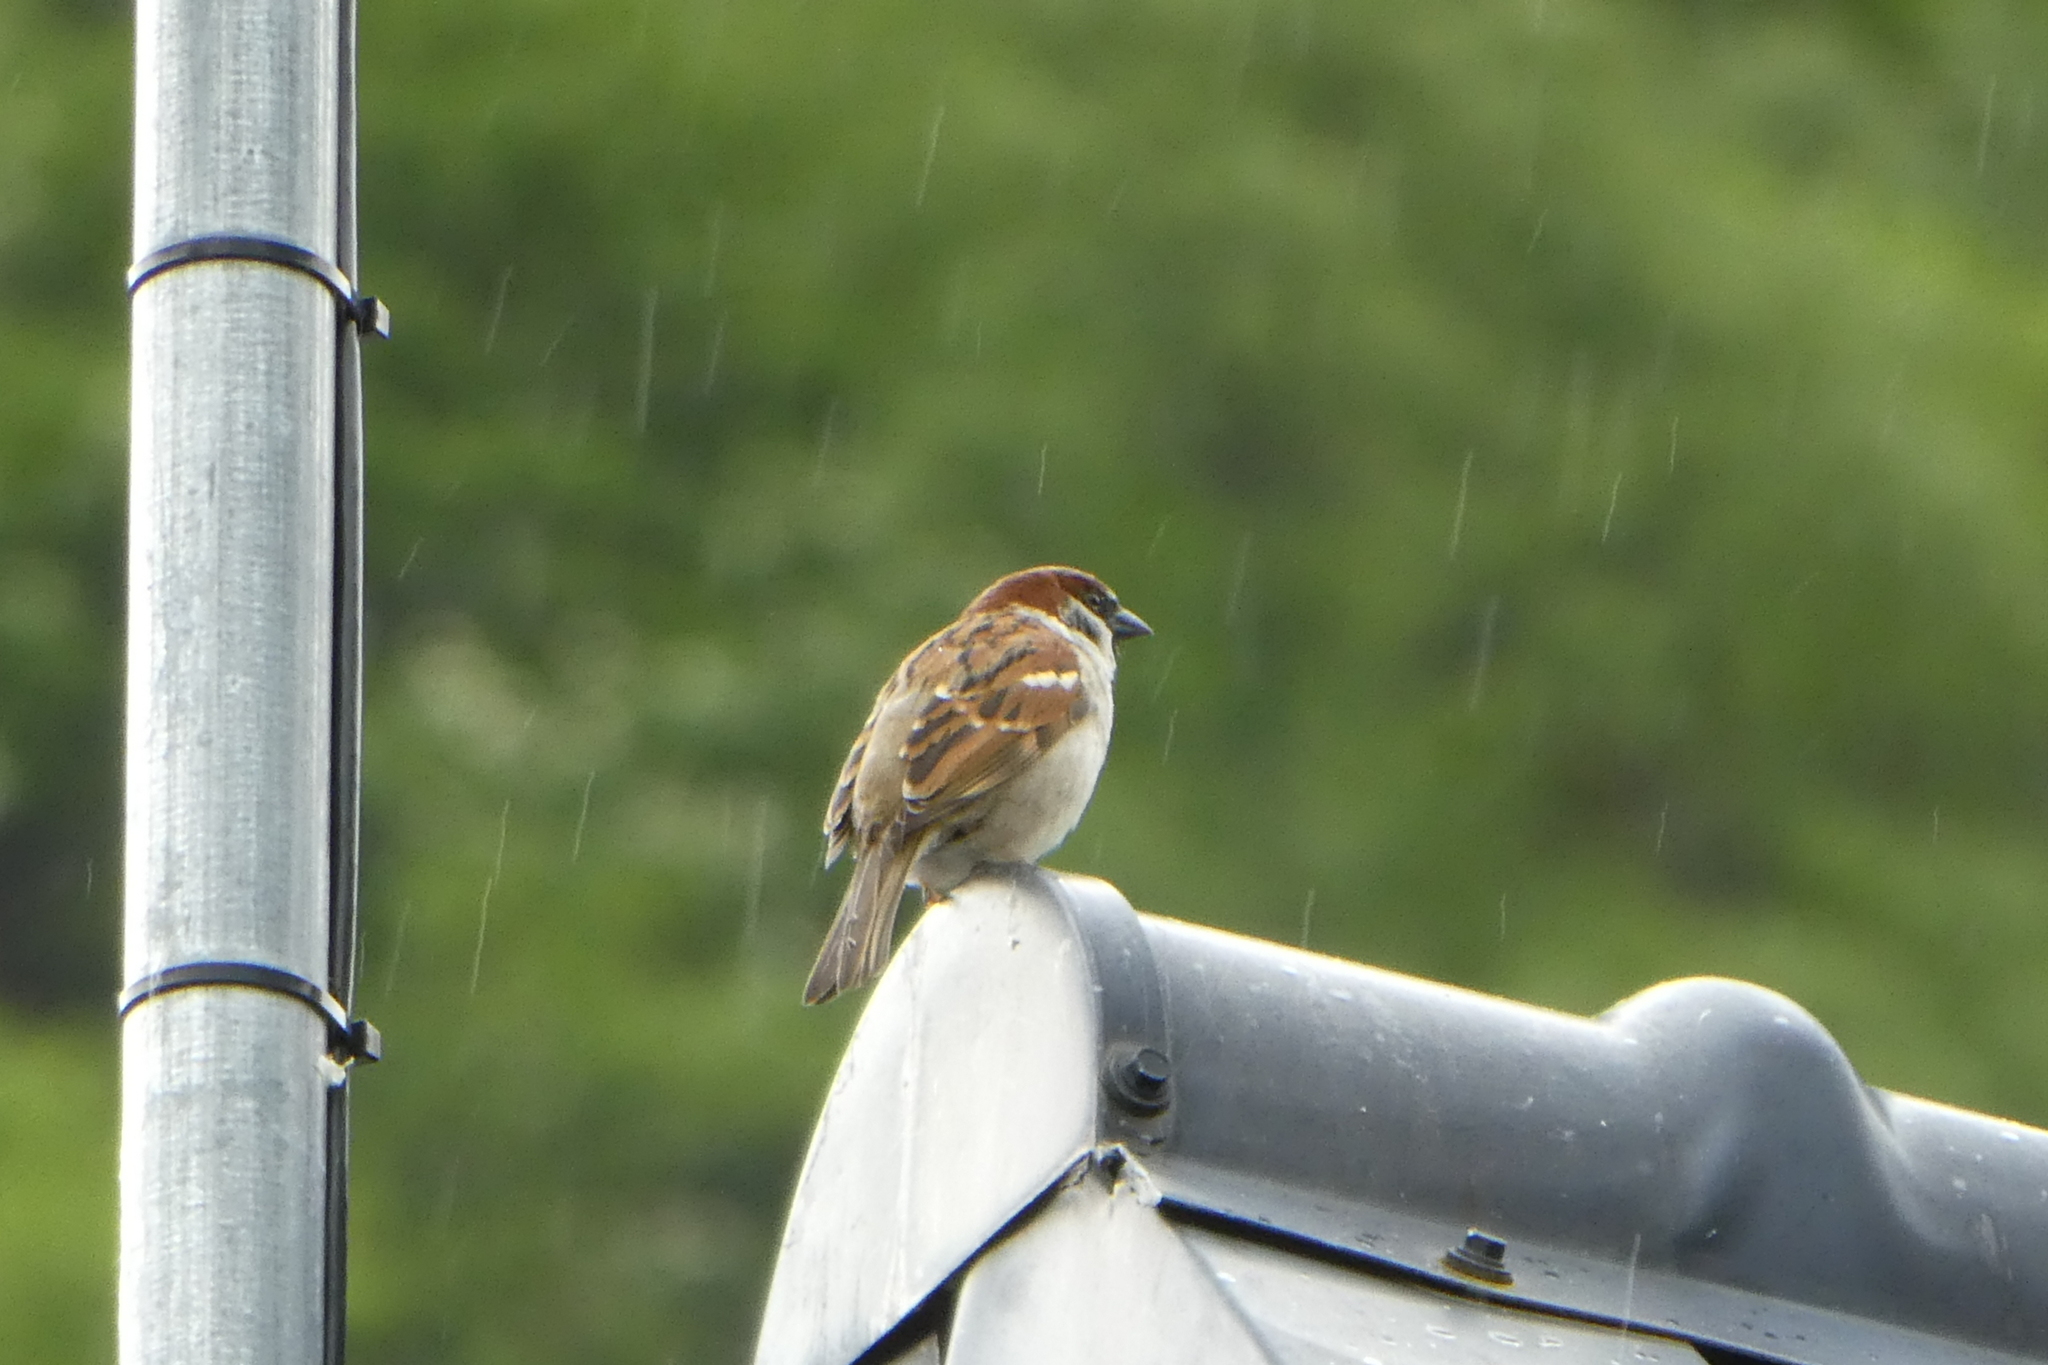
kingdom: Animalia
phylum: Chordata
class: Aves
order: Passeriformes
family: Passeridae
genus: Passer
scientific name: Passer domesticus
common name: House sparrow
